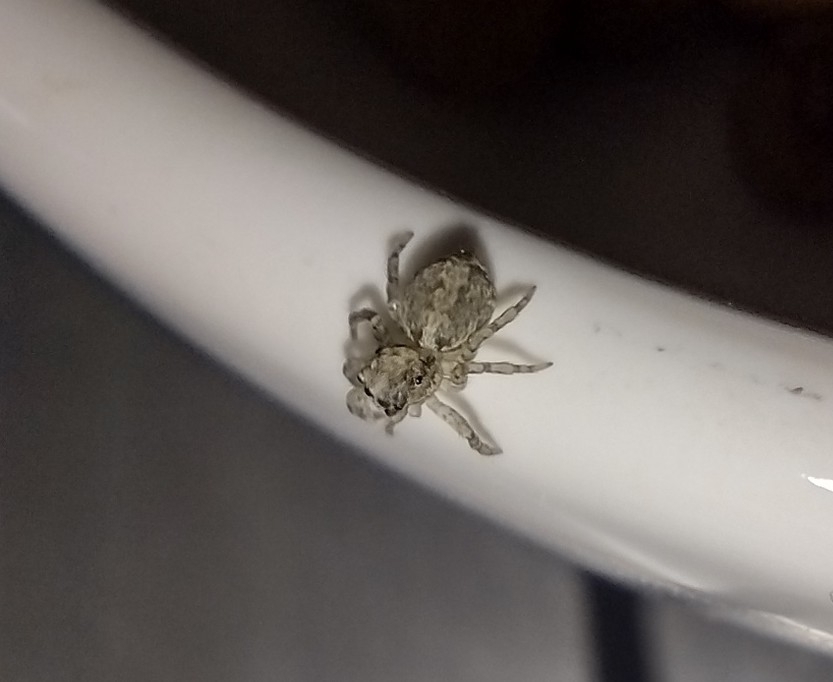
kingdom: Animalia
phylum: Arthropoda
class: Arachnida
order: Araneae
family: Salticidae
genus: Saitis
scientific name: Saitis variegatus
